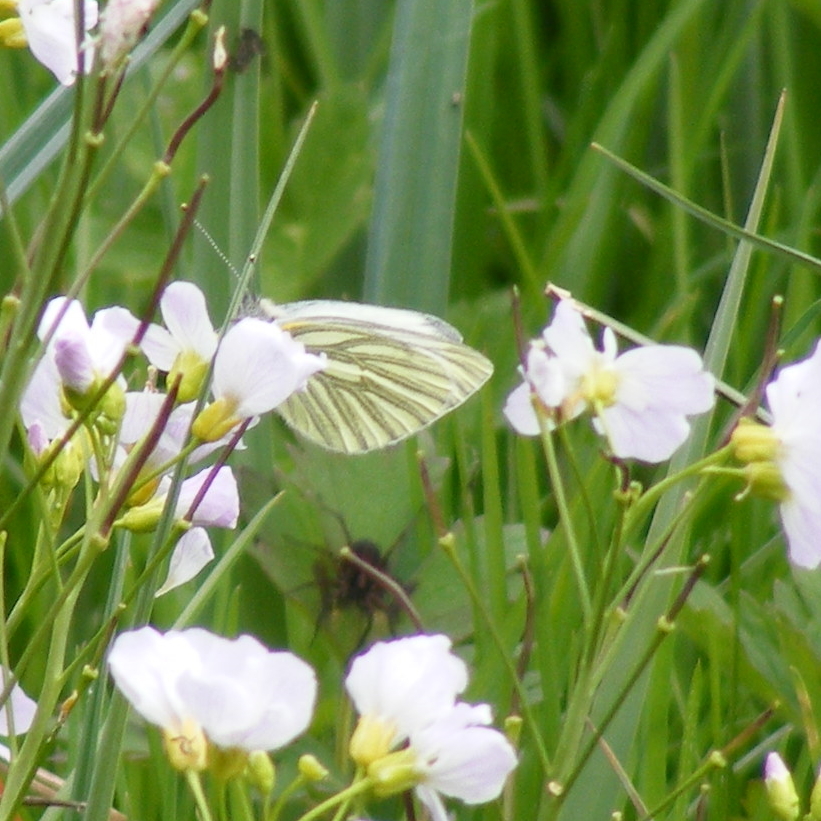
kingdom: Animalia
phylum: Arthropoda
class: Insecta
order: Lepidoptera
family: Pieridae
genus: Pieris
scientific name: Pieris napi
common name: Green-veined white
